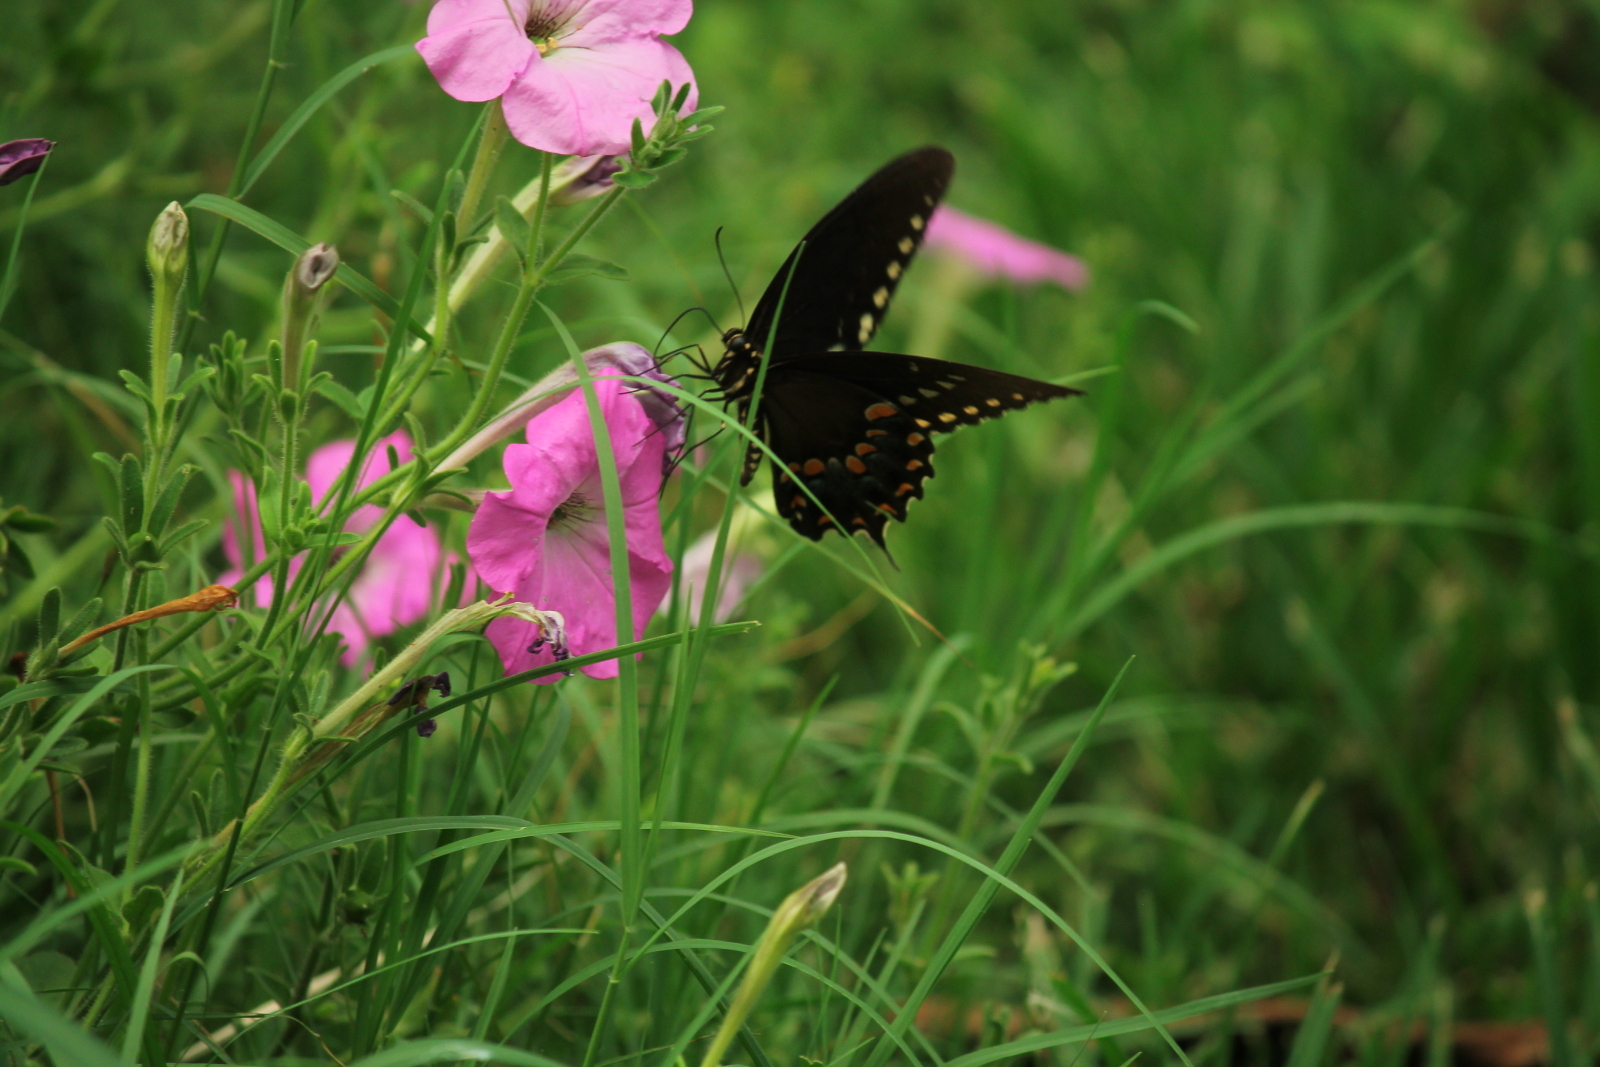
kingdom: Animalia
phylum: Arthropoda
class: Insecta
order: Lepidoptera
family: Papilionidae
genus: Papilio
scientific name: Papilio troilus
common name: Spicebush swallowtail
